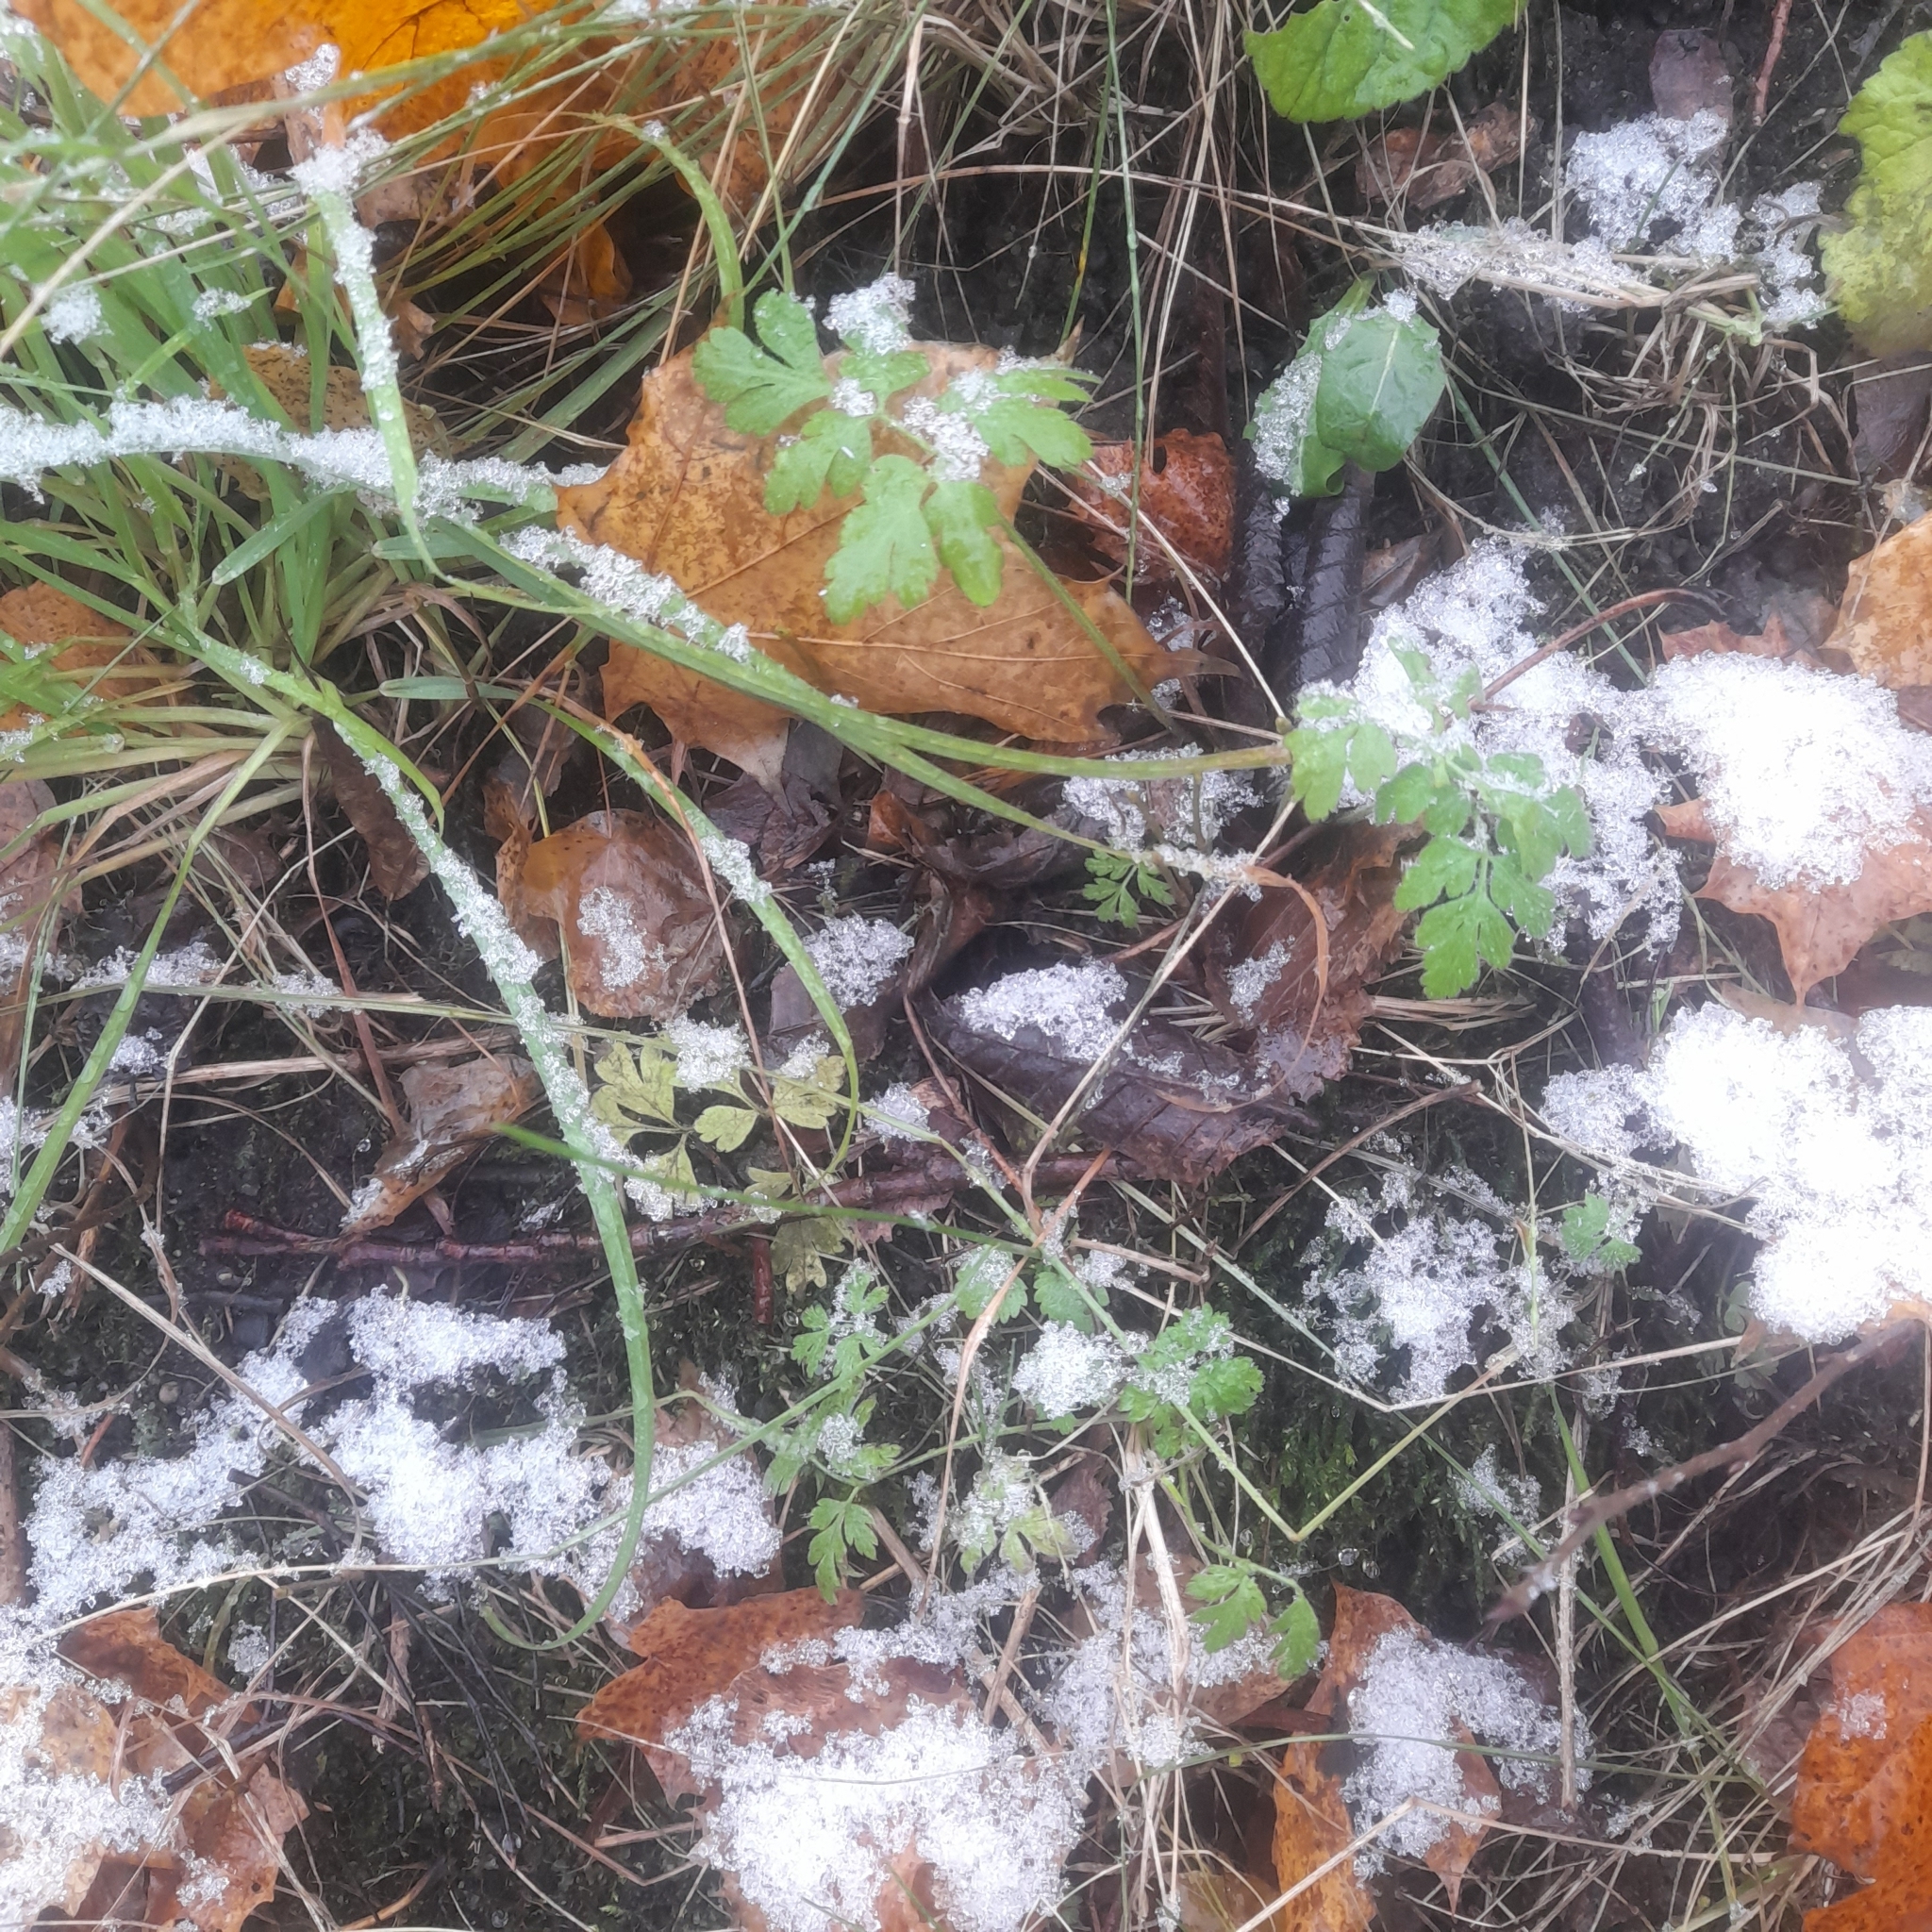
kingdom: Plantae
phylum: Tracheophyta
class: Magnoliopsida
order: Geraniales
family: Geraniaceae
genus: Geranium
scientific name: Geranium robertianum
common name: Herb-robert
